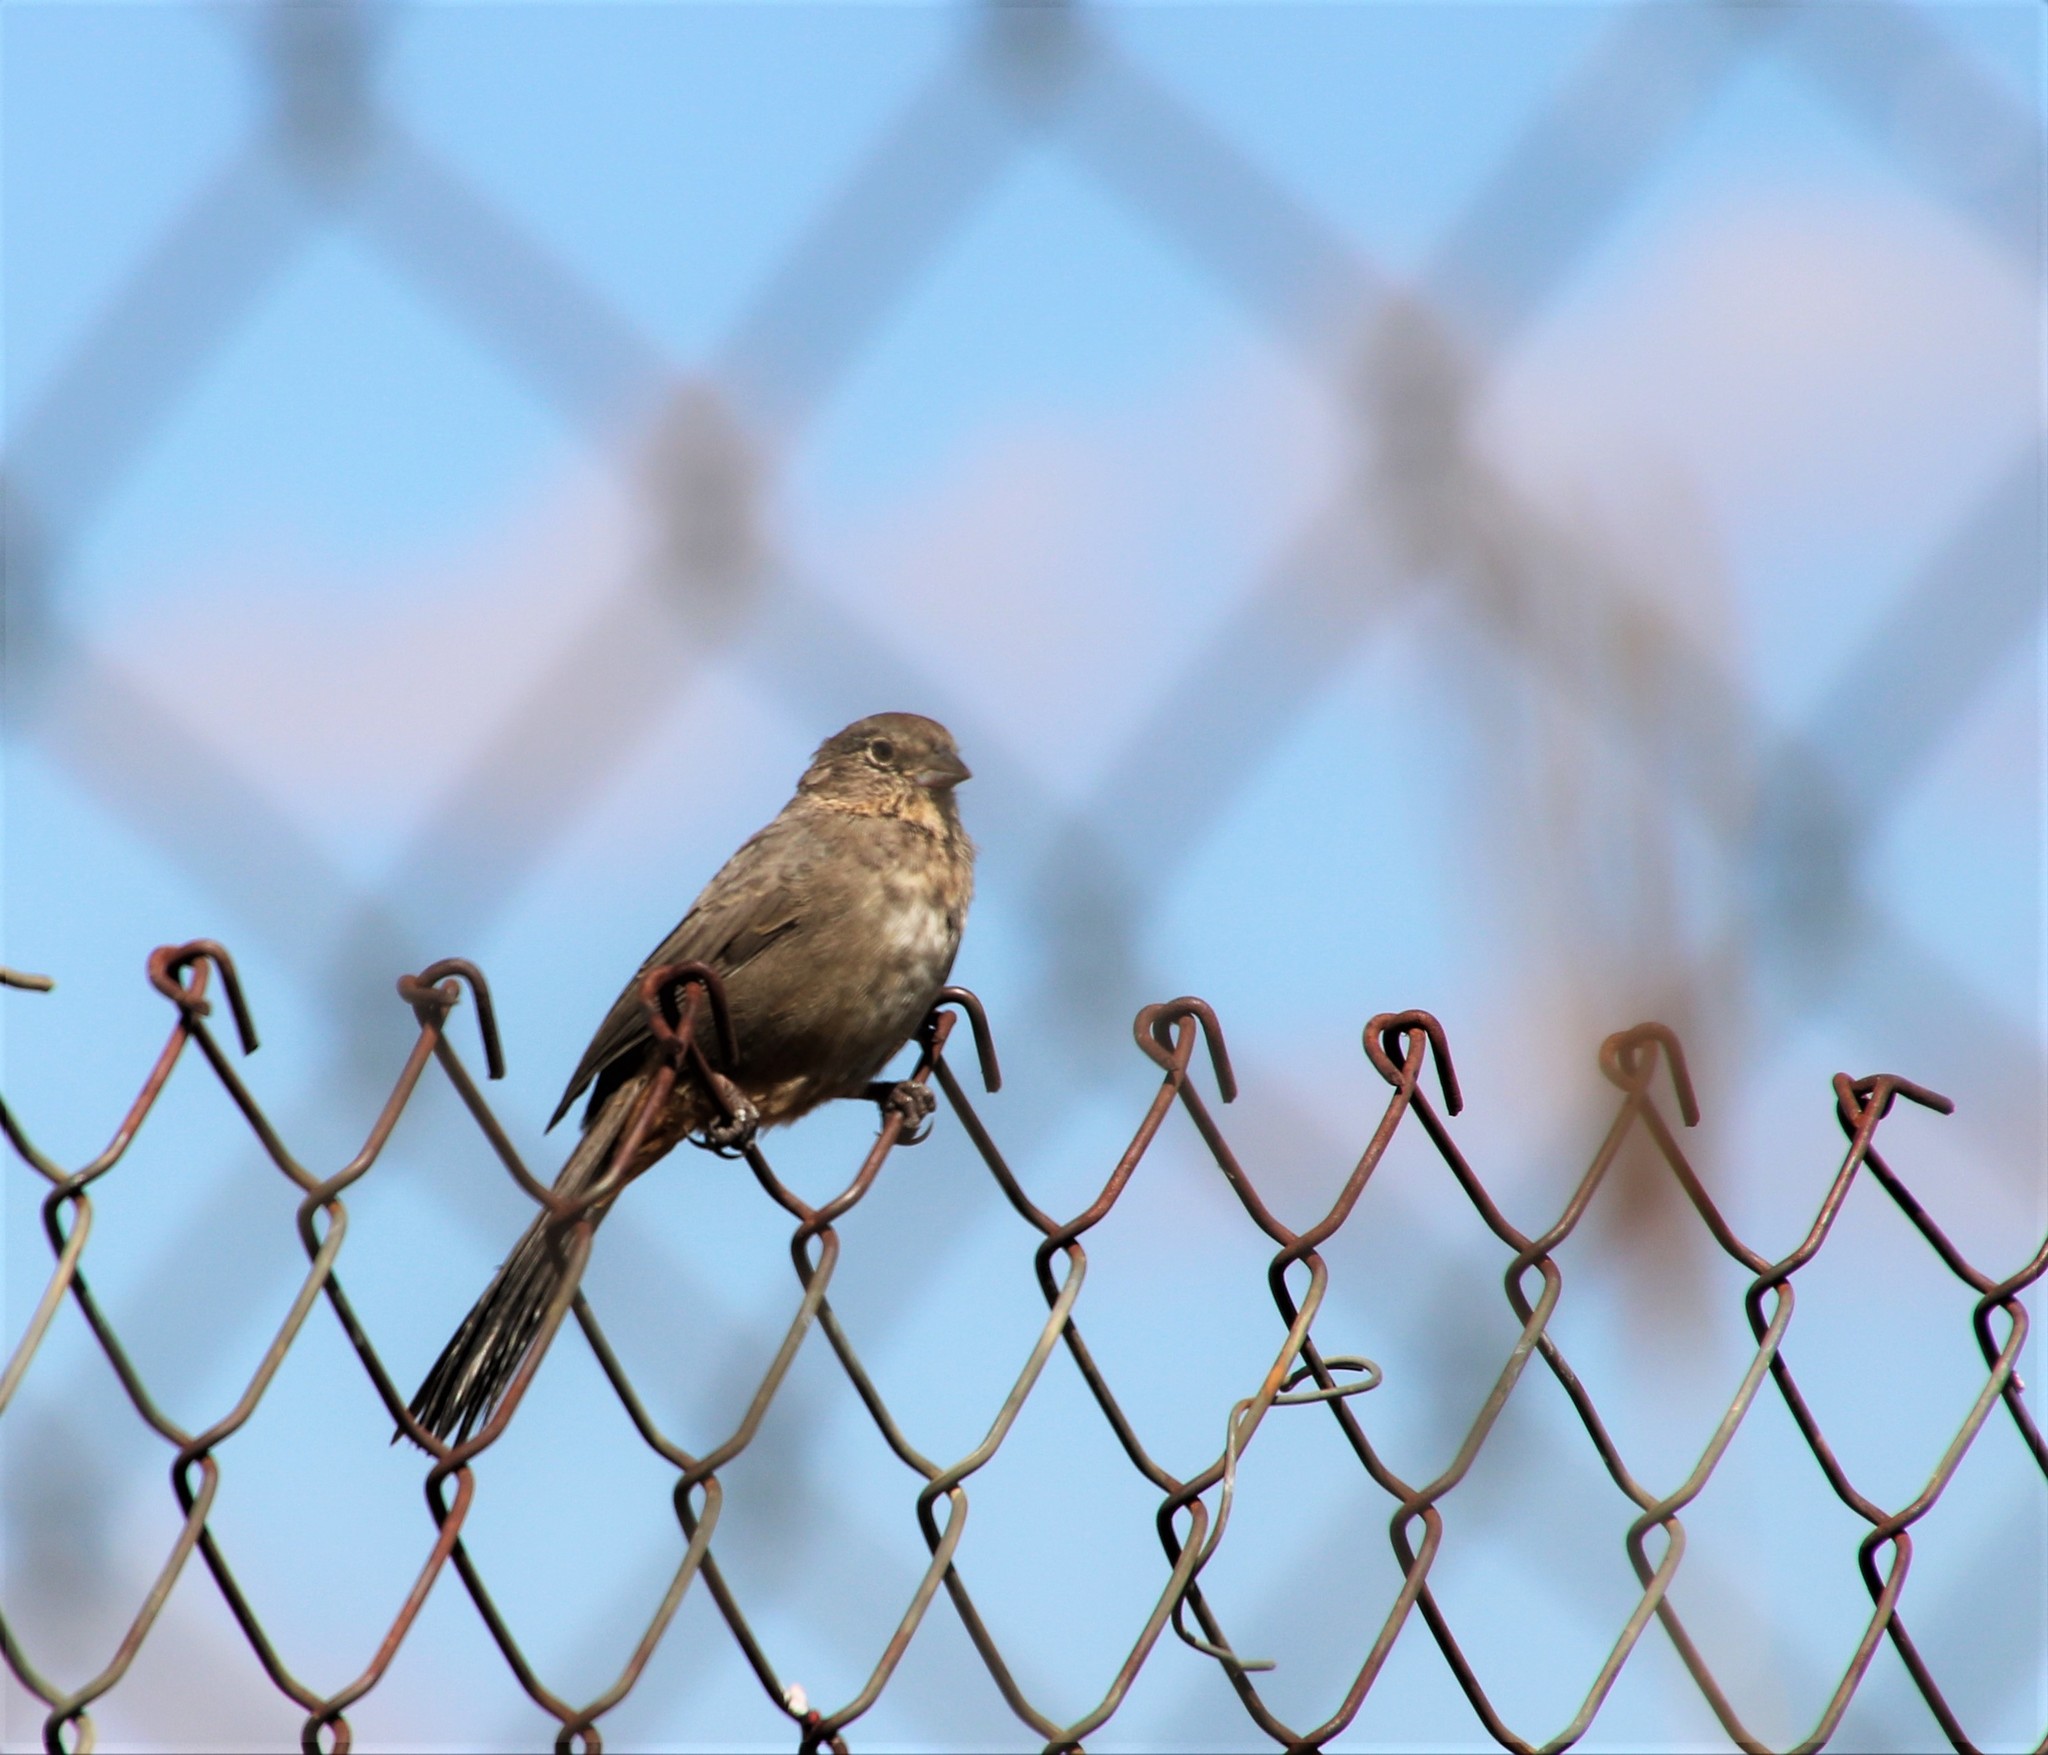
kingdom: Animalia
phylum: Chordata
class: Aves
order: Passeriformes
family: Passerellidae
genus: Melozone
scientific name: Melozone fusca
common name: Canyon towhee
